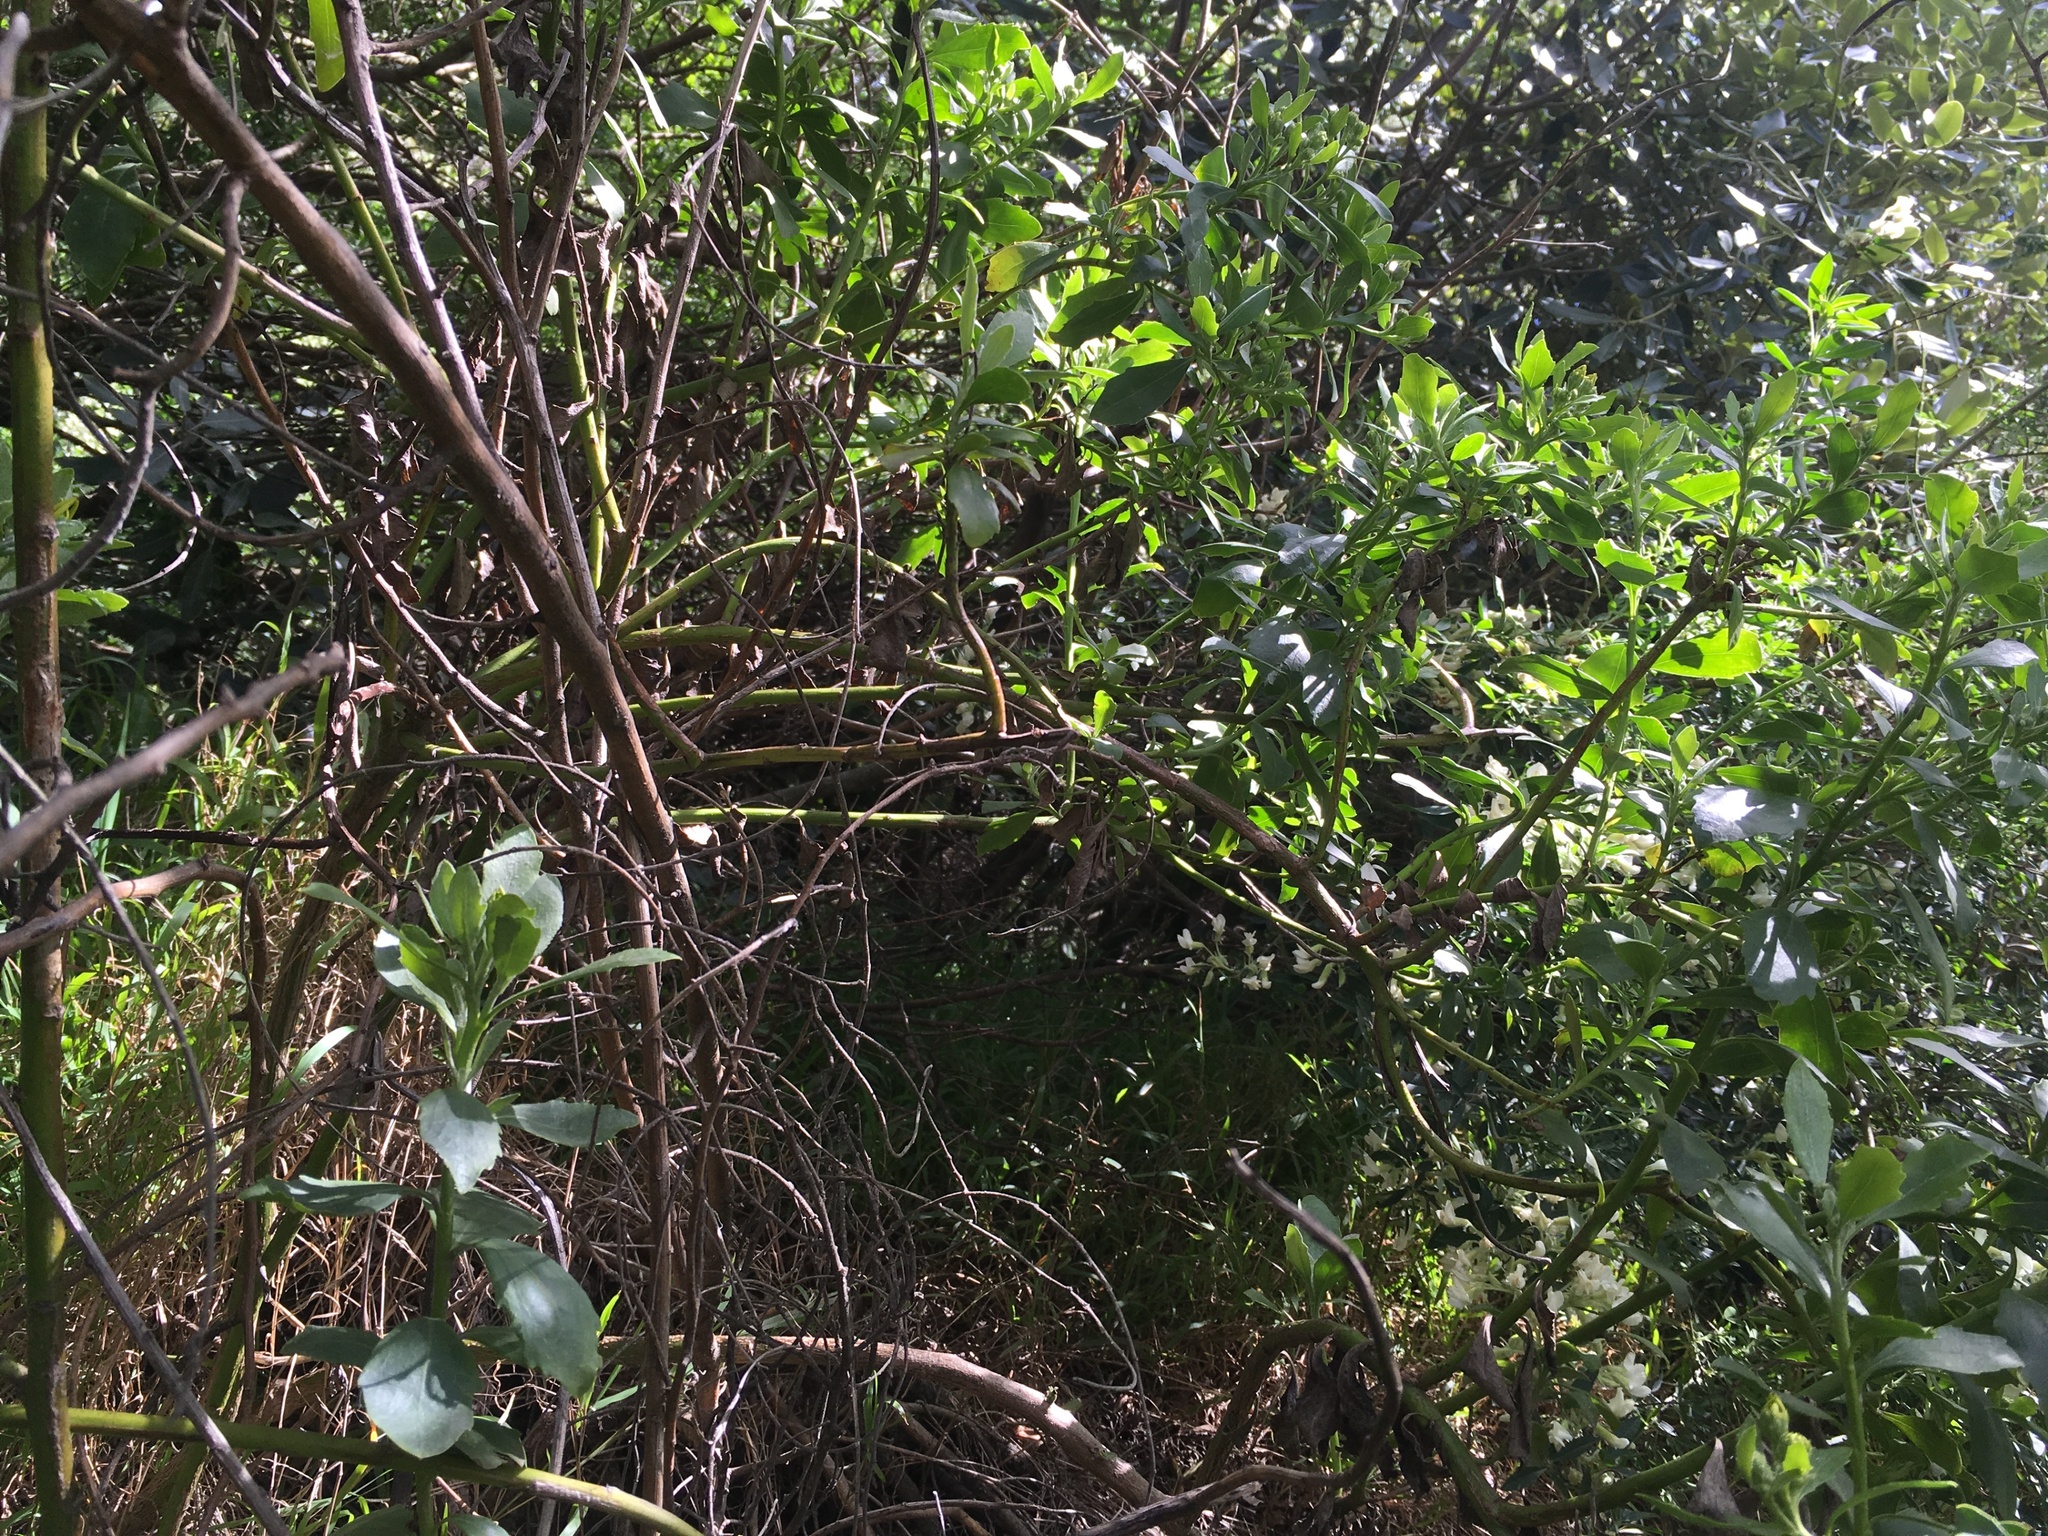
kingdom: Plantae
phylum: Tracheophyta
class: Magnoliopsida
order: Asterales
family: Asteraceae
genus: Osteospermum
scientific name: Osteospermum moniliferum
